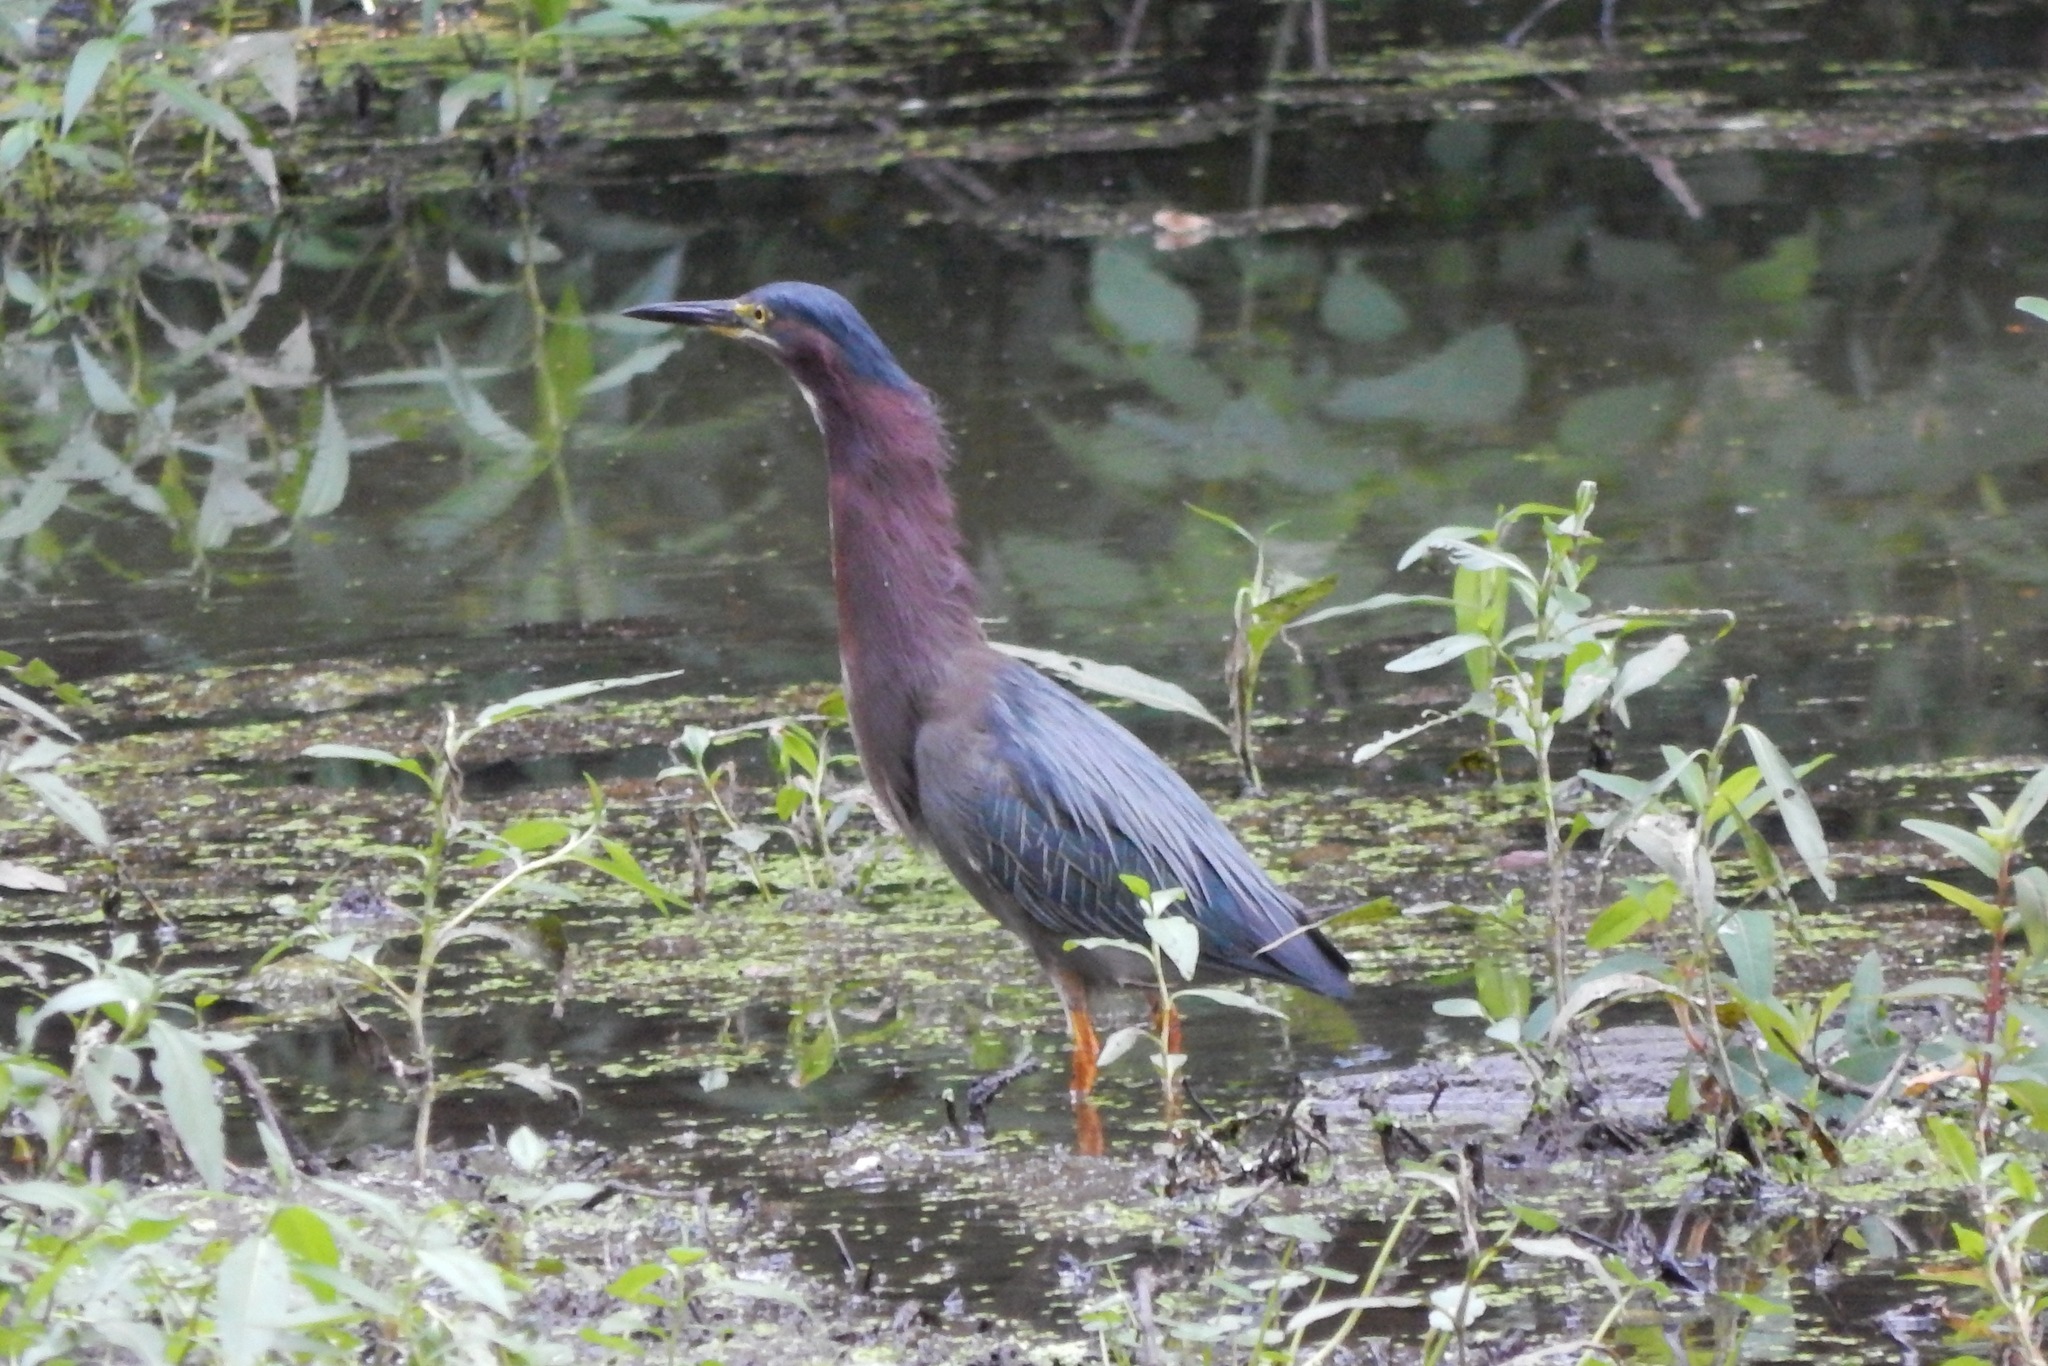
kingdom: Animalia
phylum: Chordata
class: Aves
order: Pelecaniformes
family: Ardeidae
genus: Butorides
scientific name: Butorides virescens
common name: Green heron
